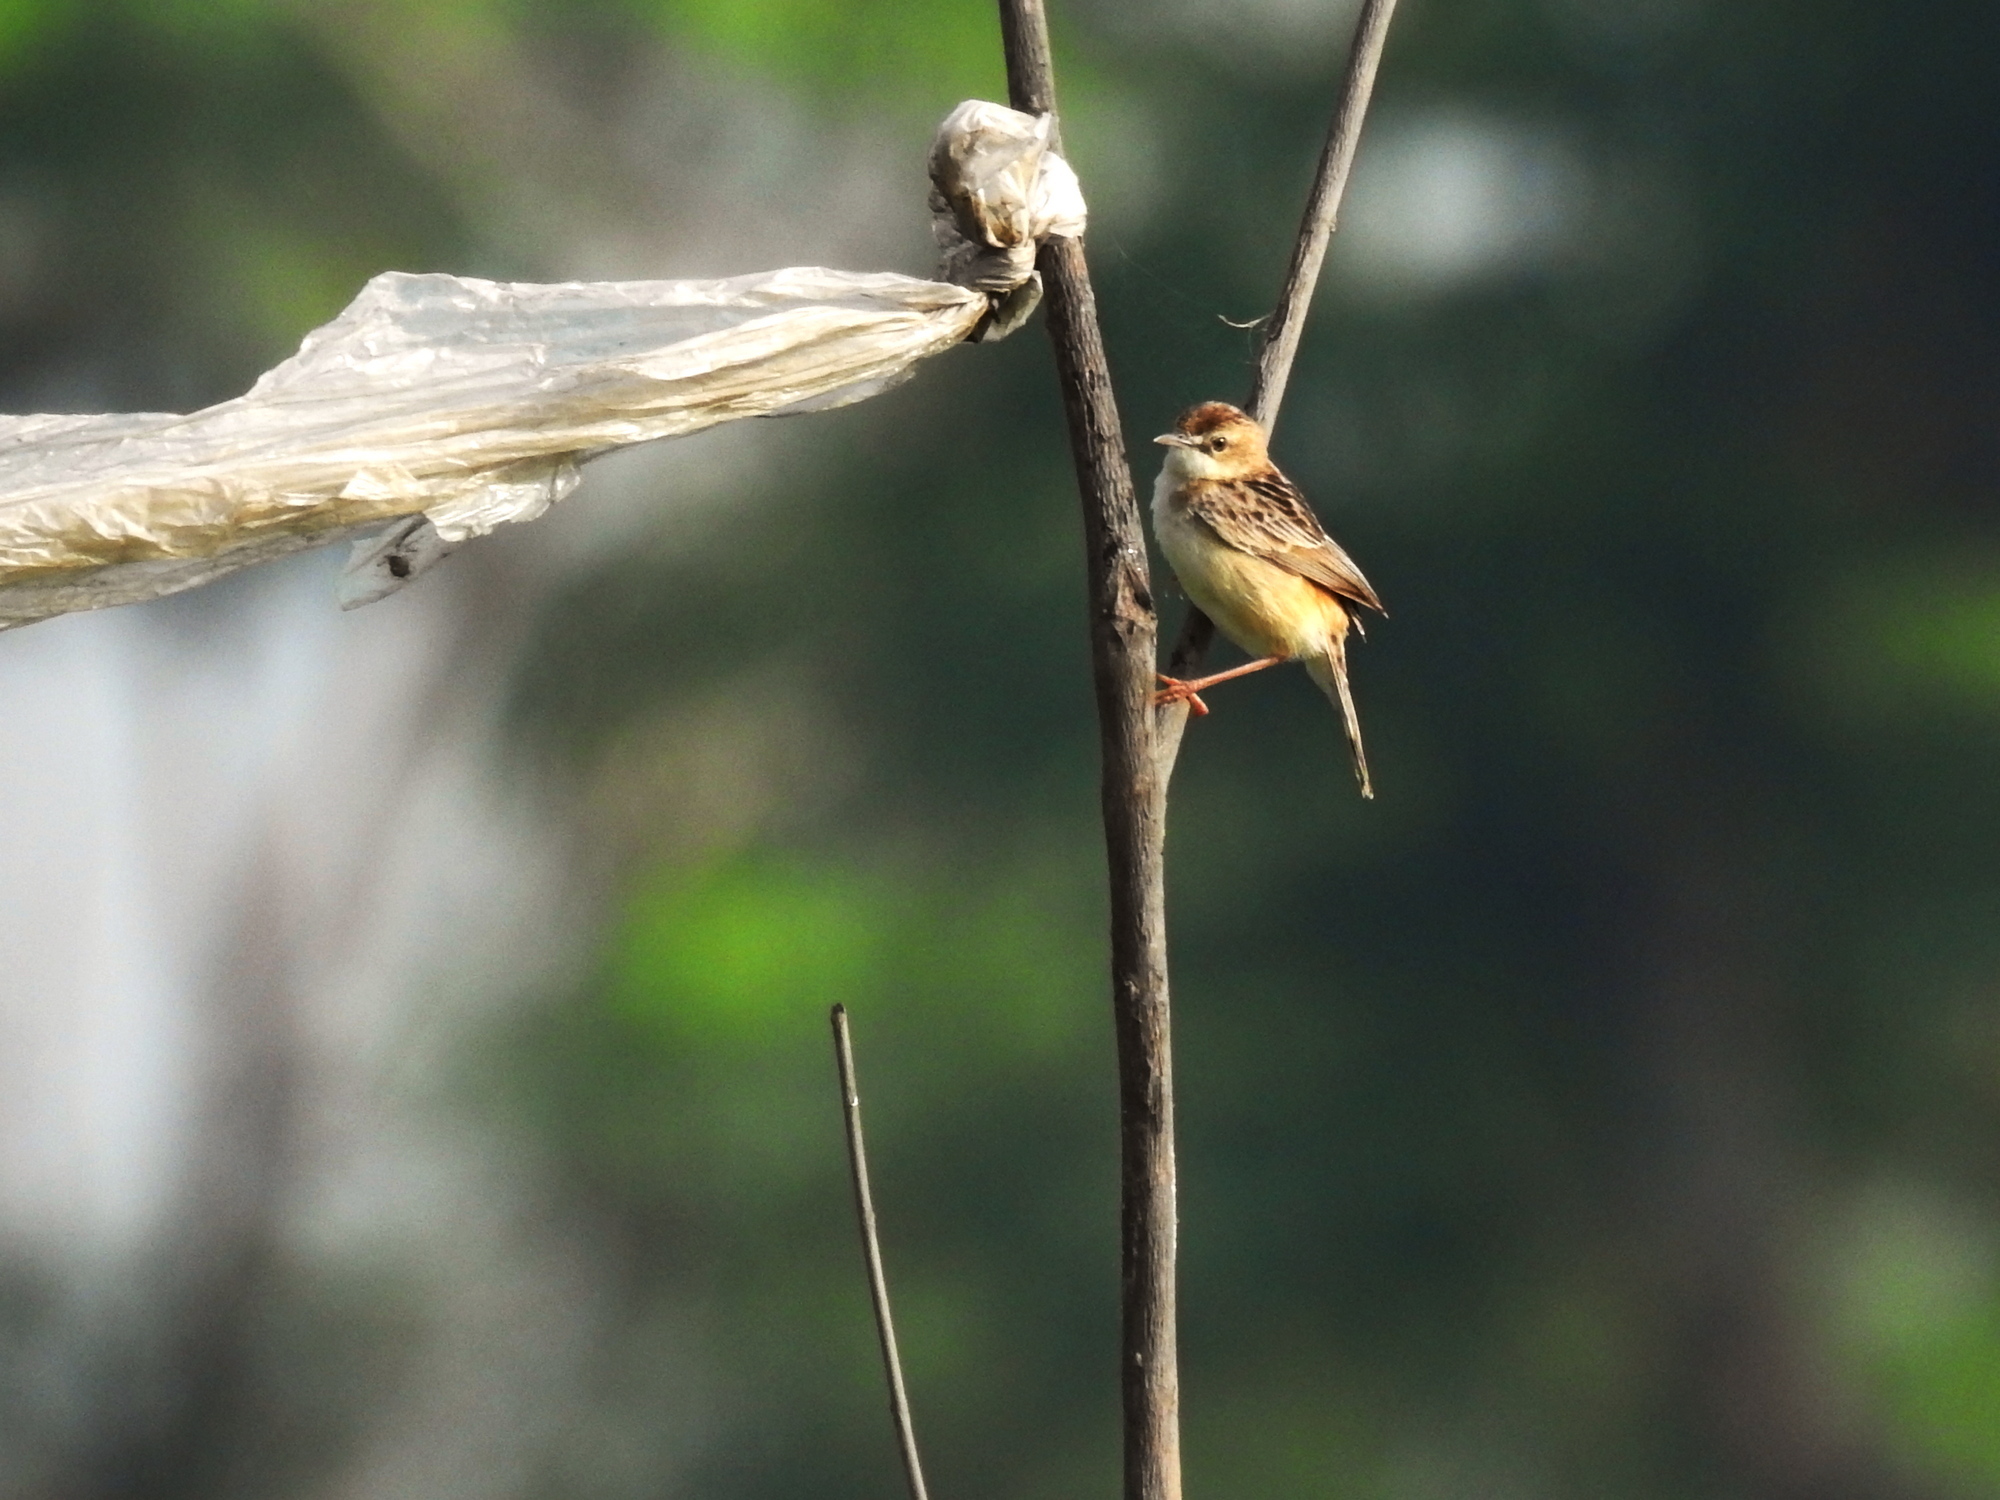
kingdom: Animalia
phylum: Chordata
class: Aves
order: Passeriformes
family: Cisticolidae
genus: Cisticola
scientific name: Cisticola exilis
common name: Golden-headed cisticola
